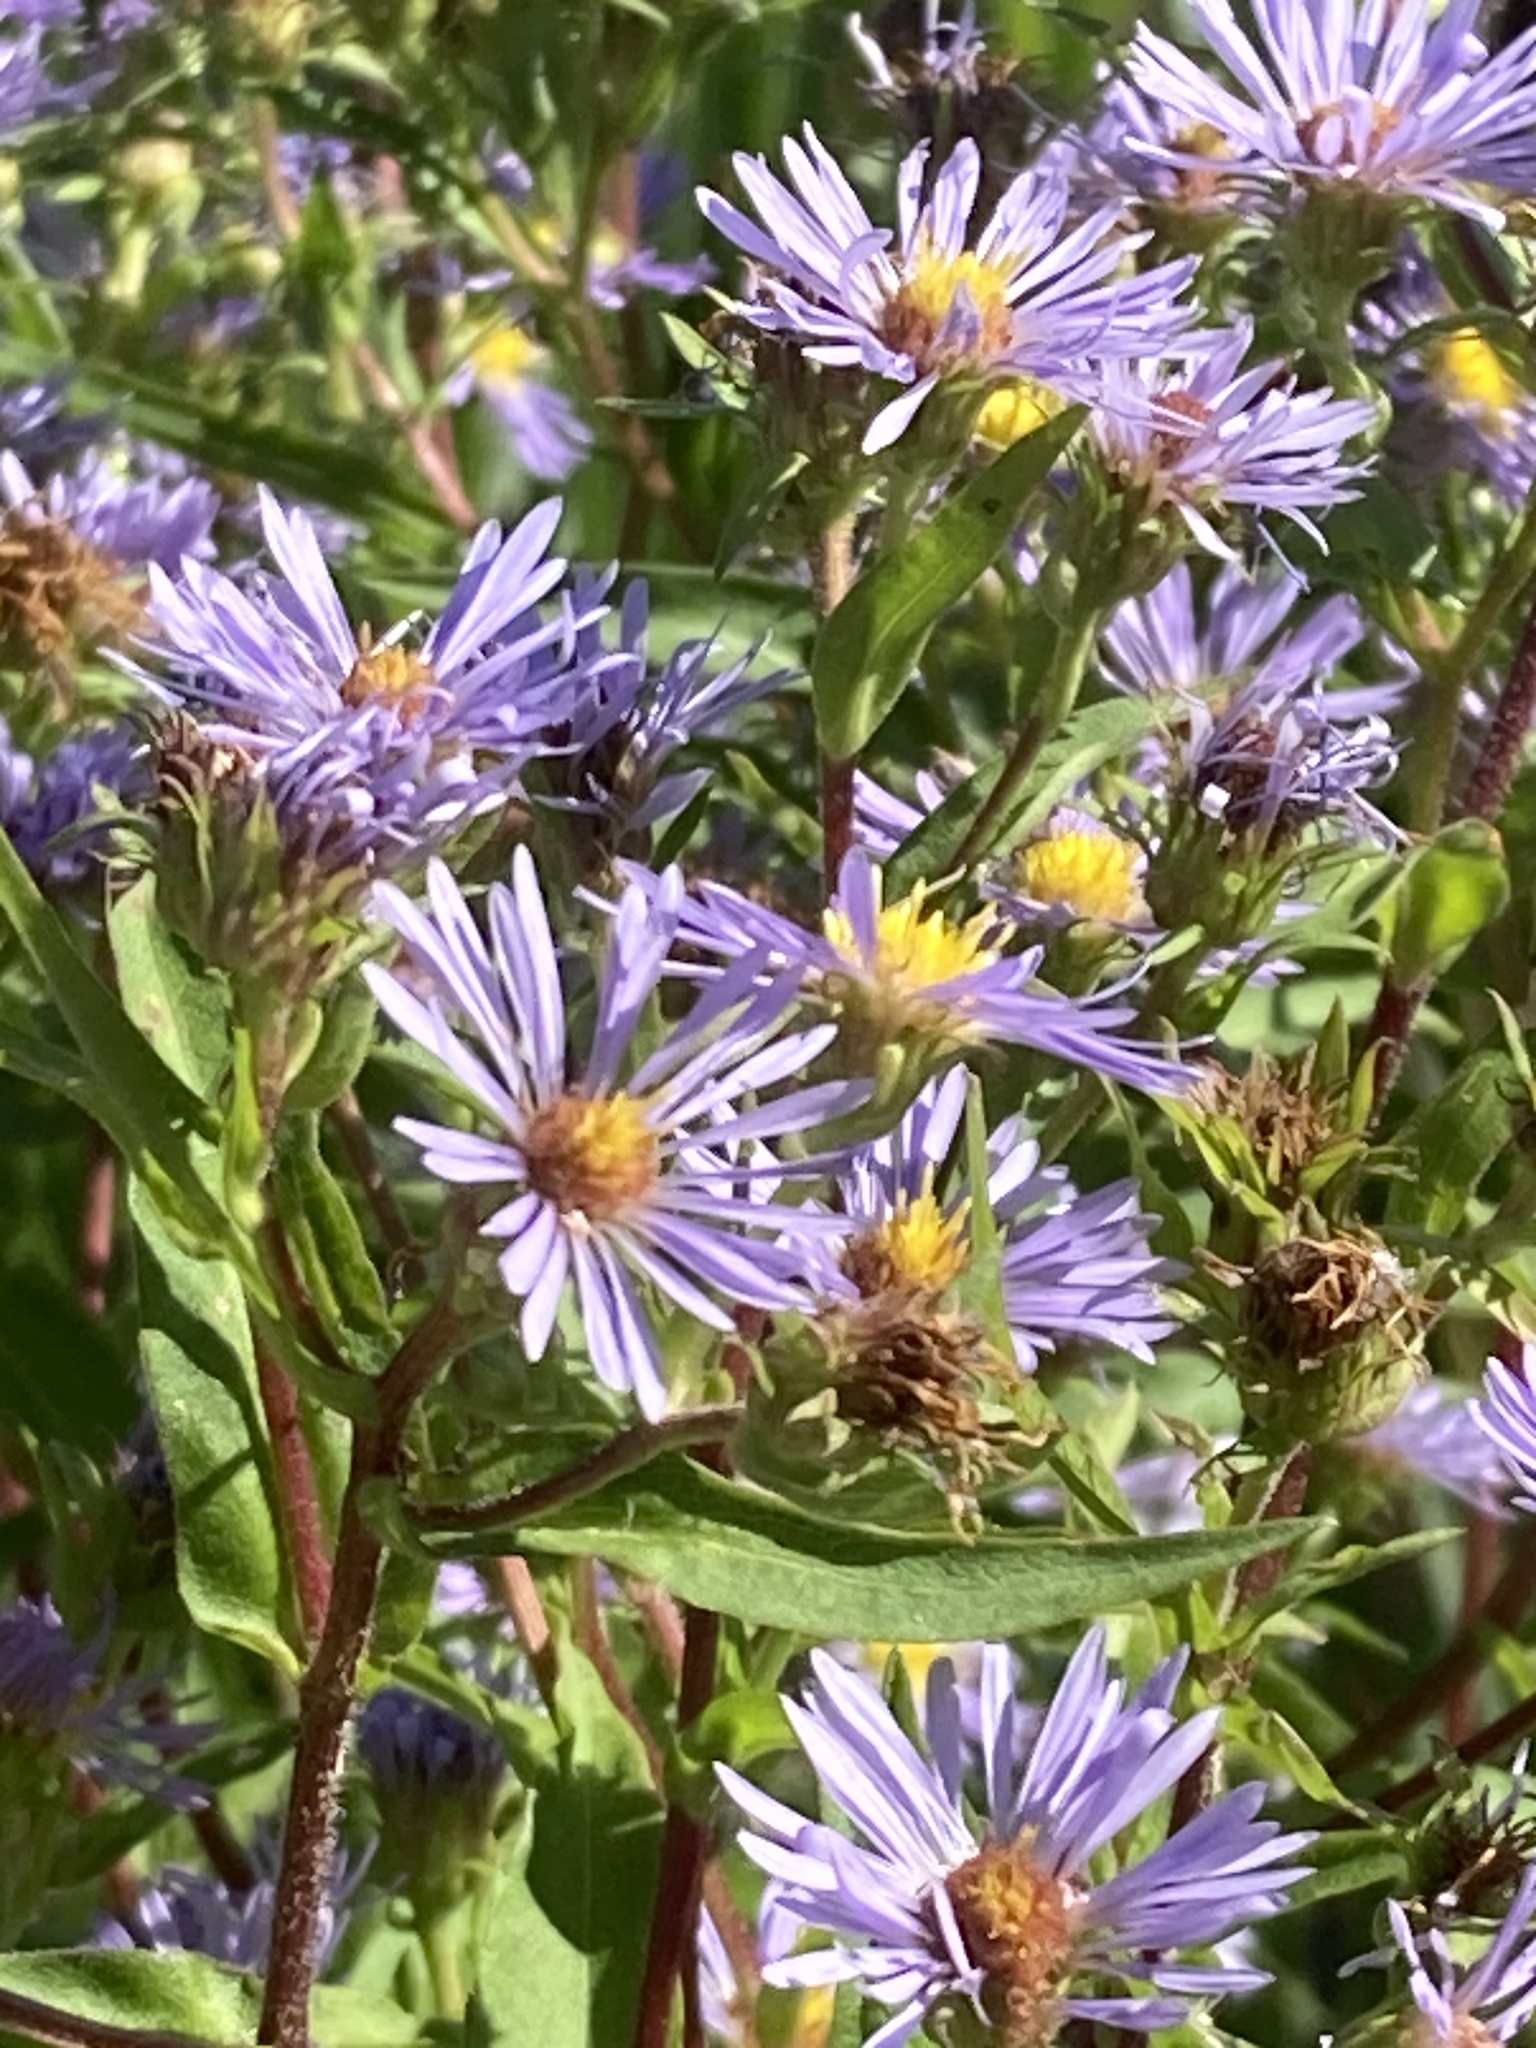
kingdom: Plantae
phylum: Tracheophyta
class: Magnoliopsida
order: Asterales
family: Asteraceae
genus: Symphyotrichum
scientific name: Symphyotrichum puniceum
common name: Bog aster
